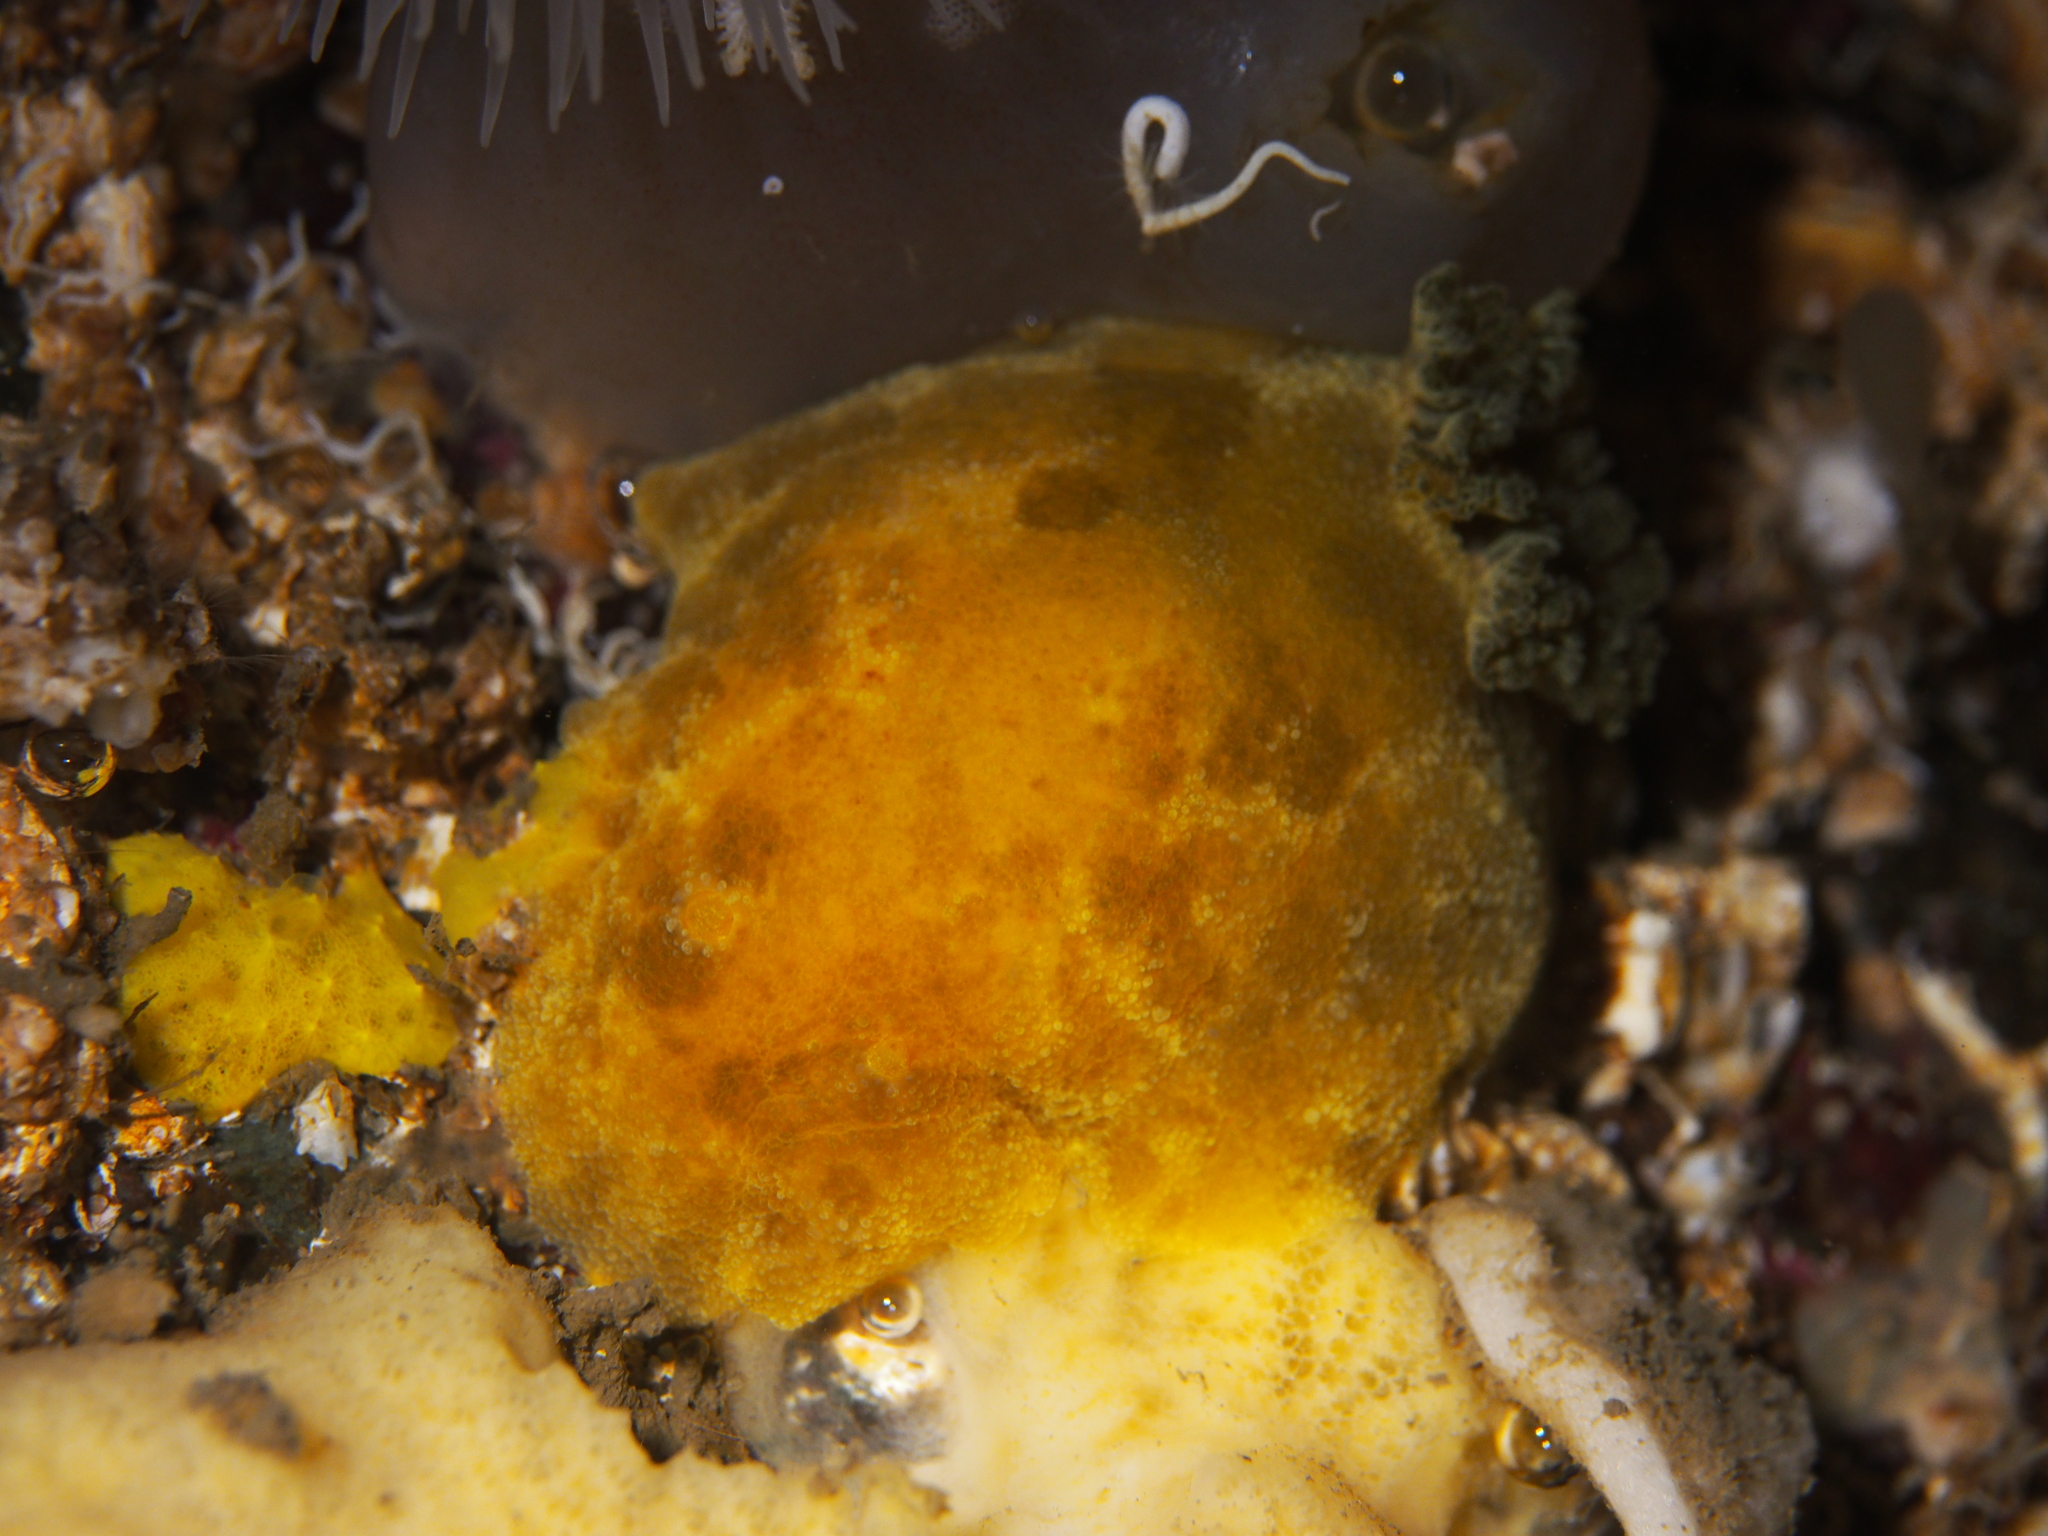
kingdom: Animalia
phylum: Mollusca
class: Gastropoda
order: Nudibranchia
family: Dorididae
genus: Doris
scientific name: Doris pseudoargus
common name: Sea lemon
